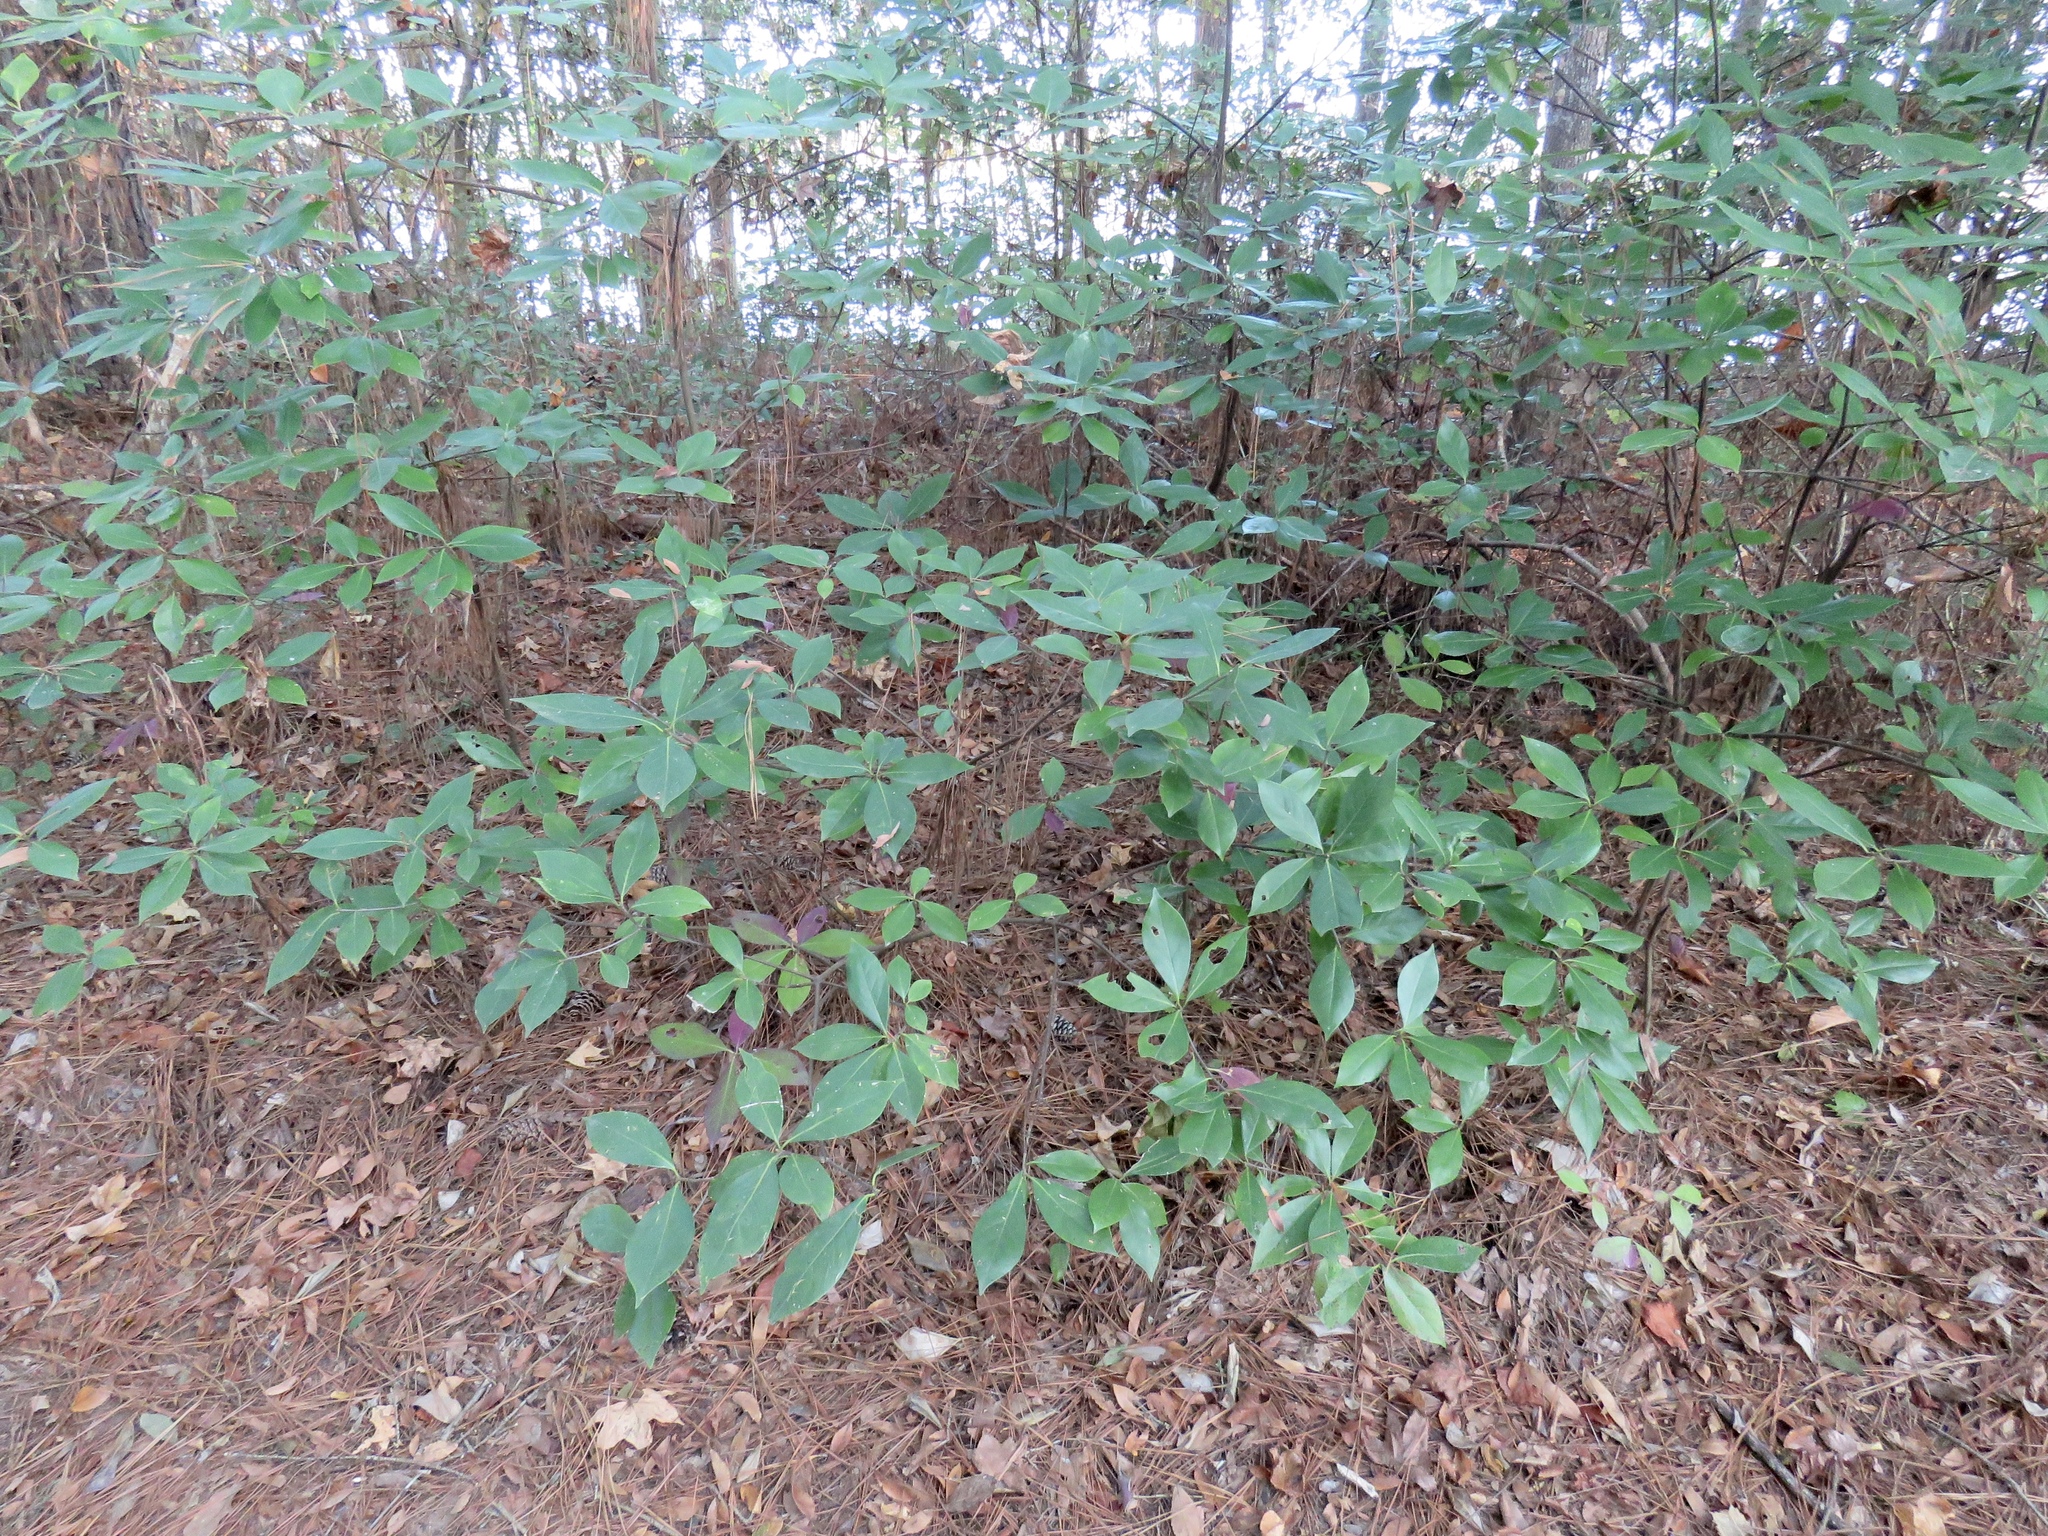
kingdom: Plantae
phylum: Tracheophyta
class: Magnoliopsida
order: Ericales
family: Symplocaceae
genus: Symplocos
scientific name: Symplocos tinctoria
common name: Horse-sugar
